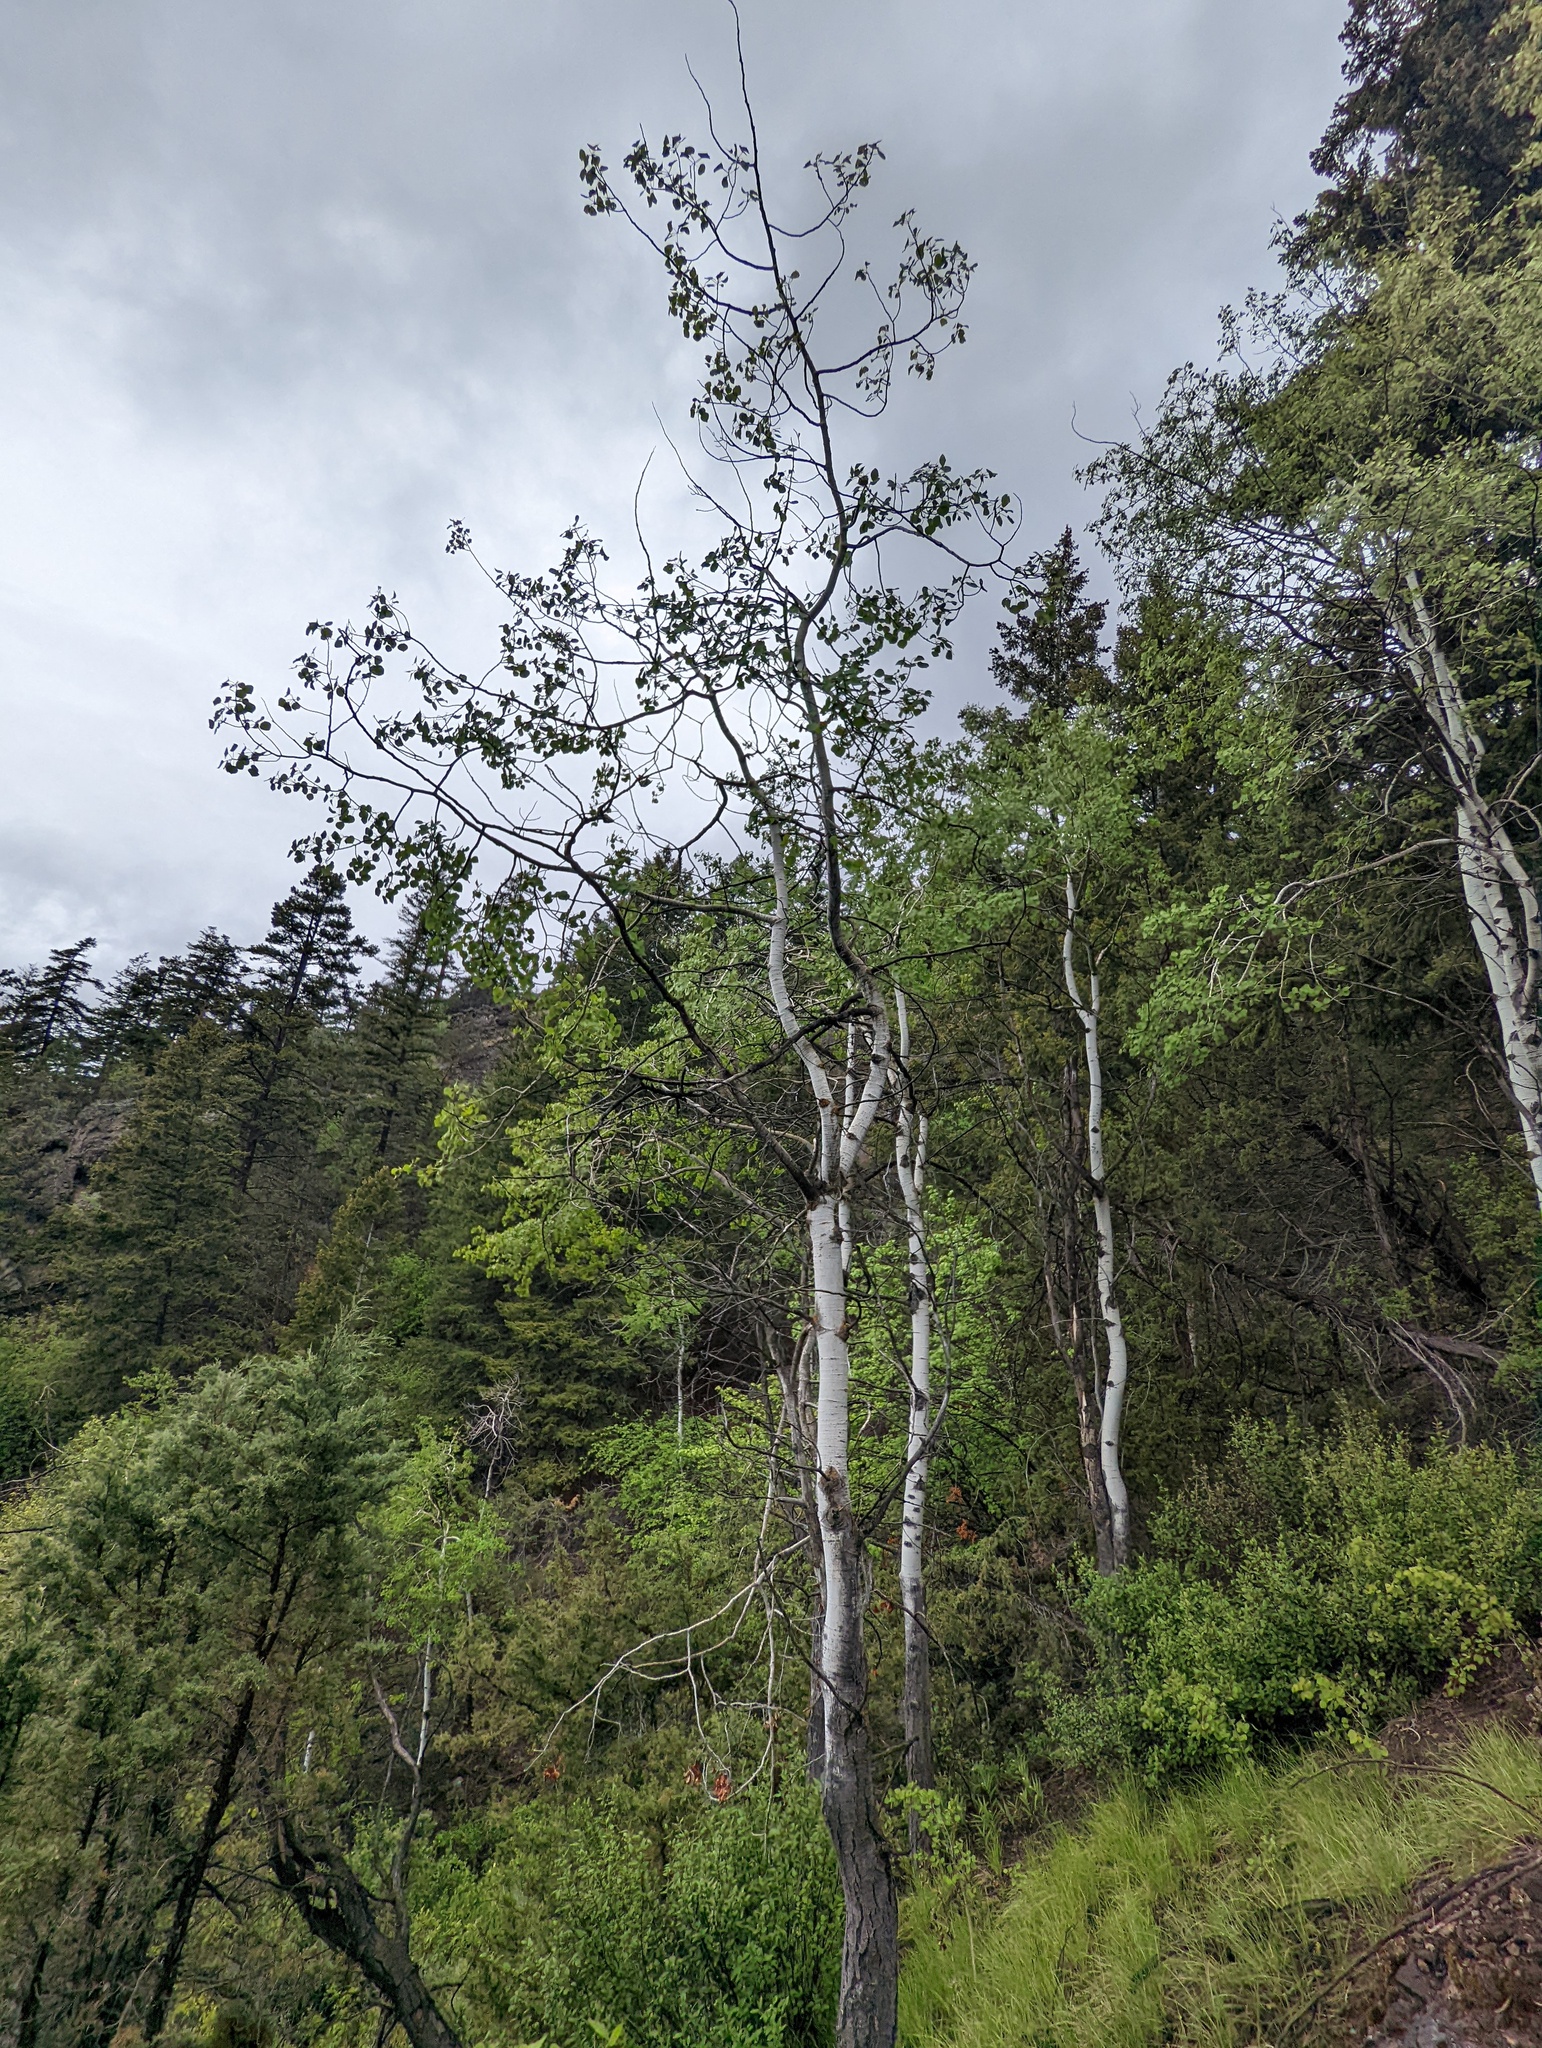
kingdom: Plantae
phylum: Tracheophyta
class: Magnoliopsida
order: Malpighiales
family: Salicaceae
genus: Populus
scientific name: Populus tremuloides
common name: Quaking aspen
